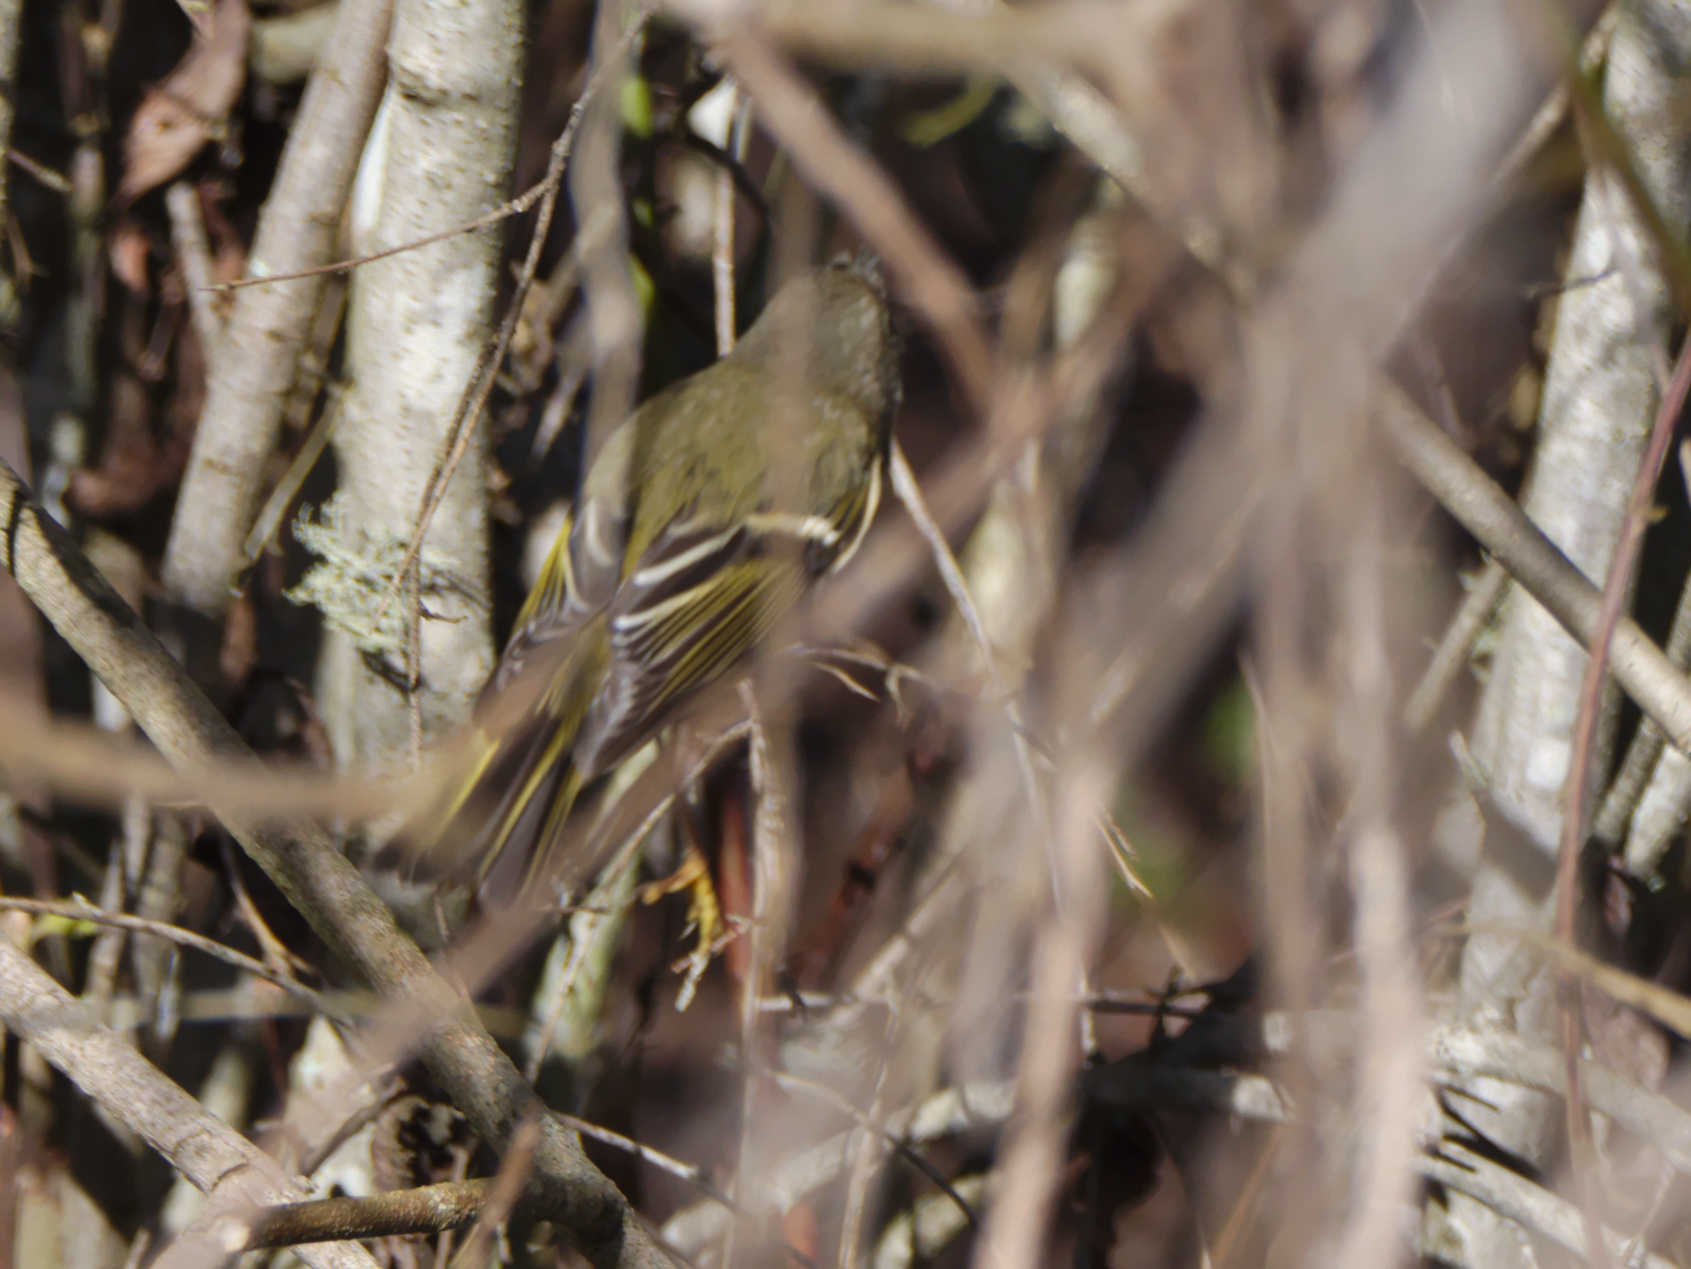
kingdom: Animalia
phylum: Chordata
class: Aves
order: Passeriformes
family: Regulidae
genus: Regulus
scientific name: Regulus calendula
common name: Ruby-crowned kinglet
